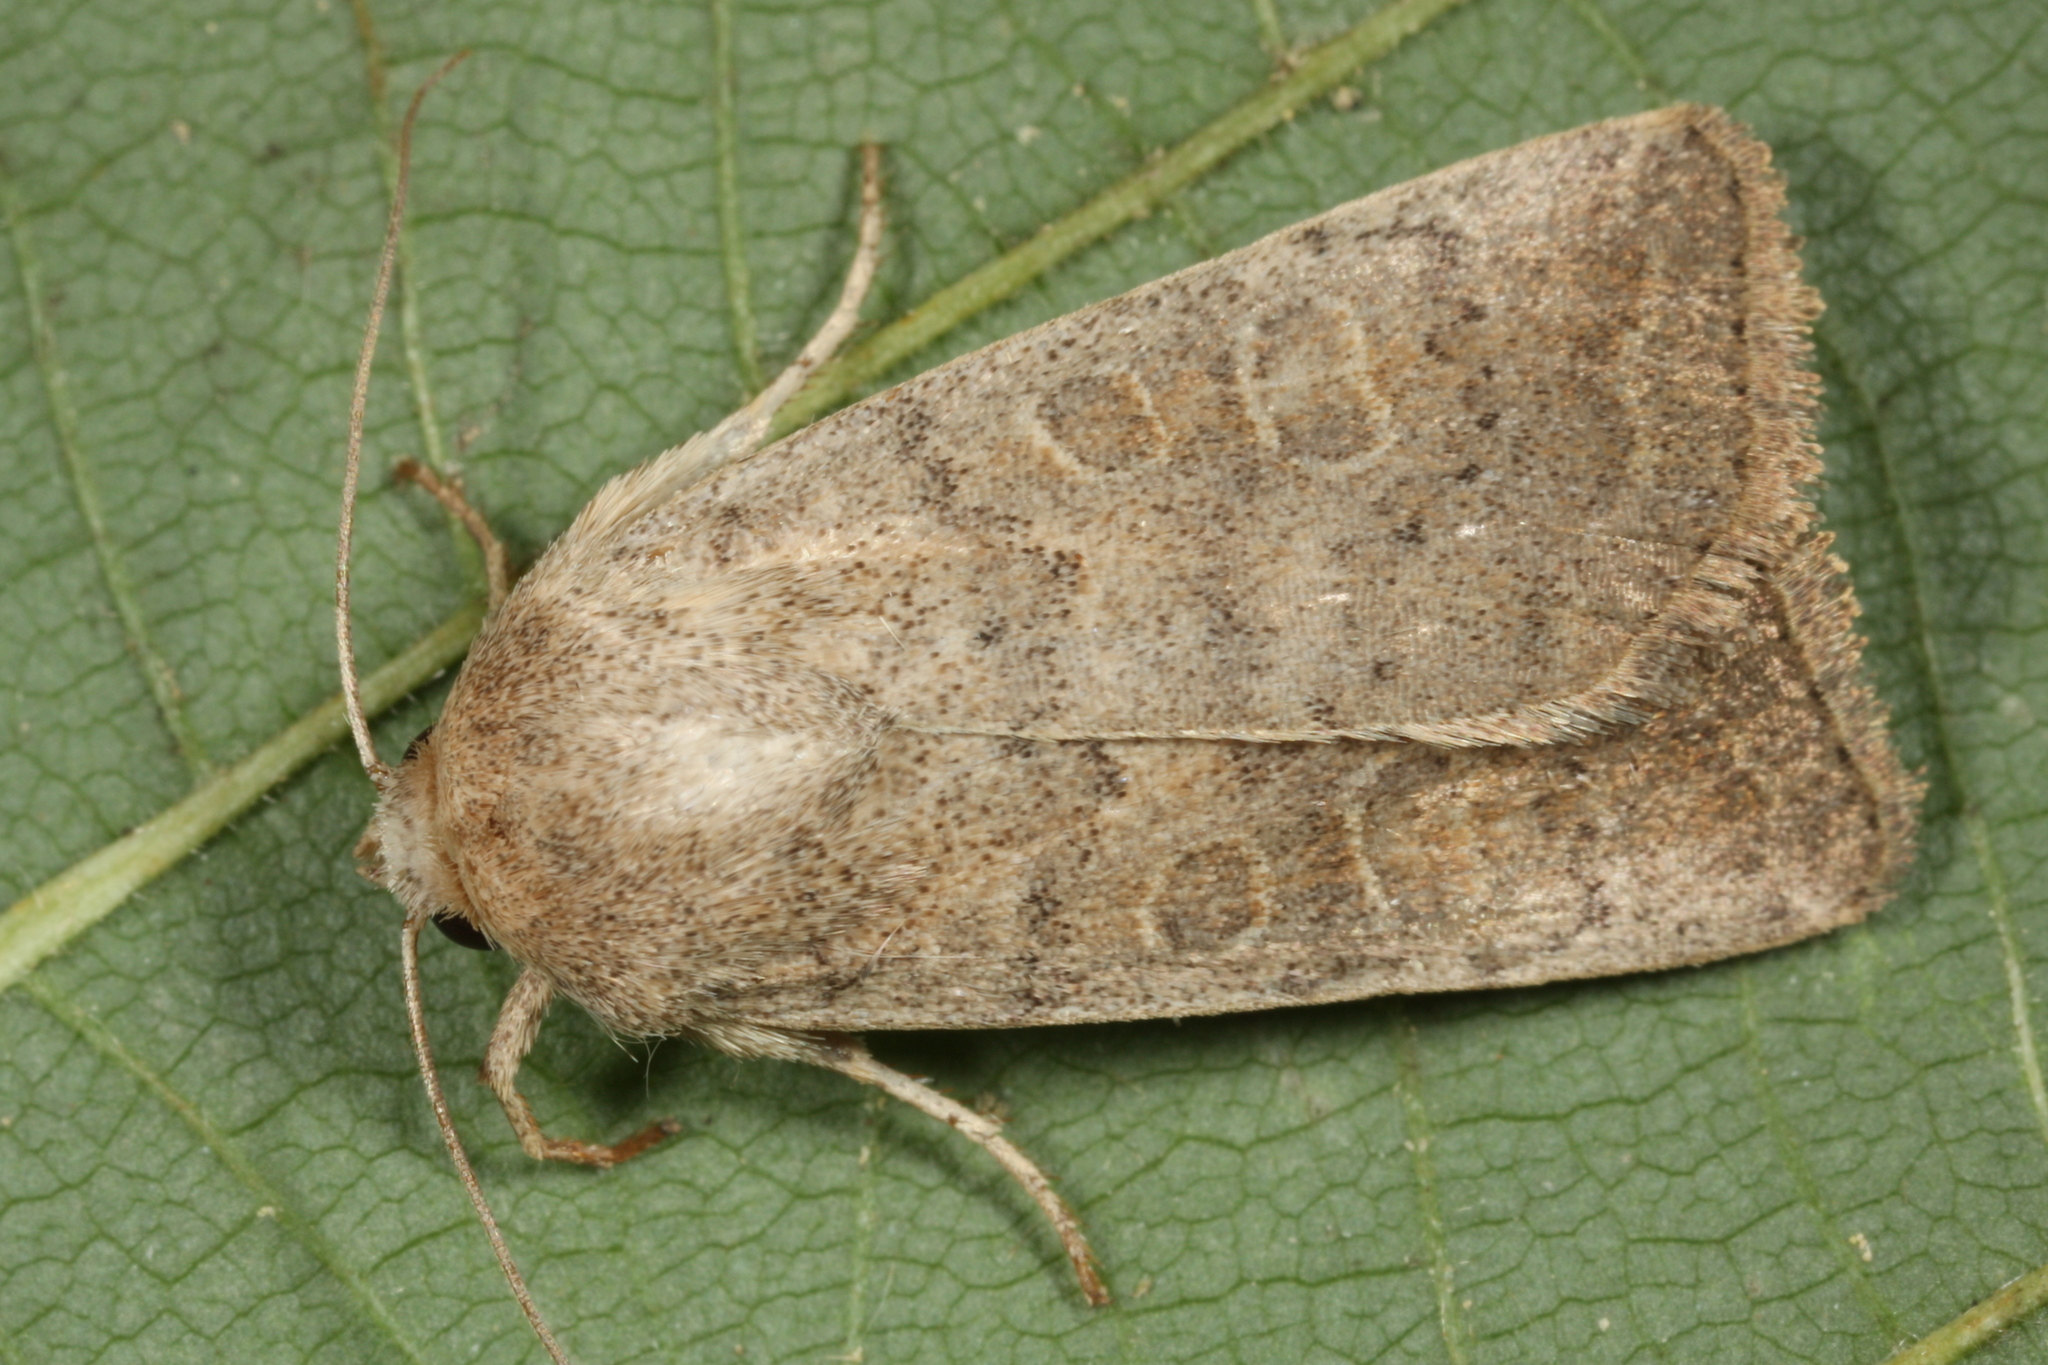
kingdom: Animalia
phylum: Arthropoda
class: Insecta
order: Lepidoptera
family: Noctuidae
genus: Hoplodrina
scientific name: Hoplodrina ambigua
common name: Vine's rustic
